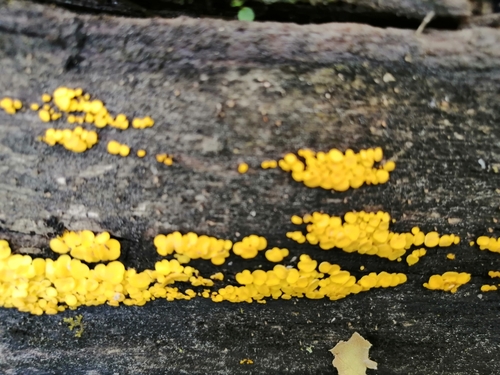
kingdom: Fungi
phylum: Ascomycota
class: Leotiomycetes
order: Helotiales
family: Pezizellaceae
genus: Calycina
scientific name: Calycina citrina
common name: Yellow fairy cups
